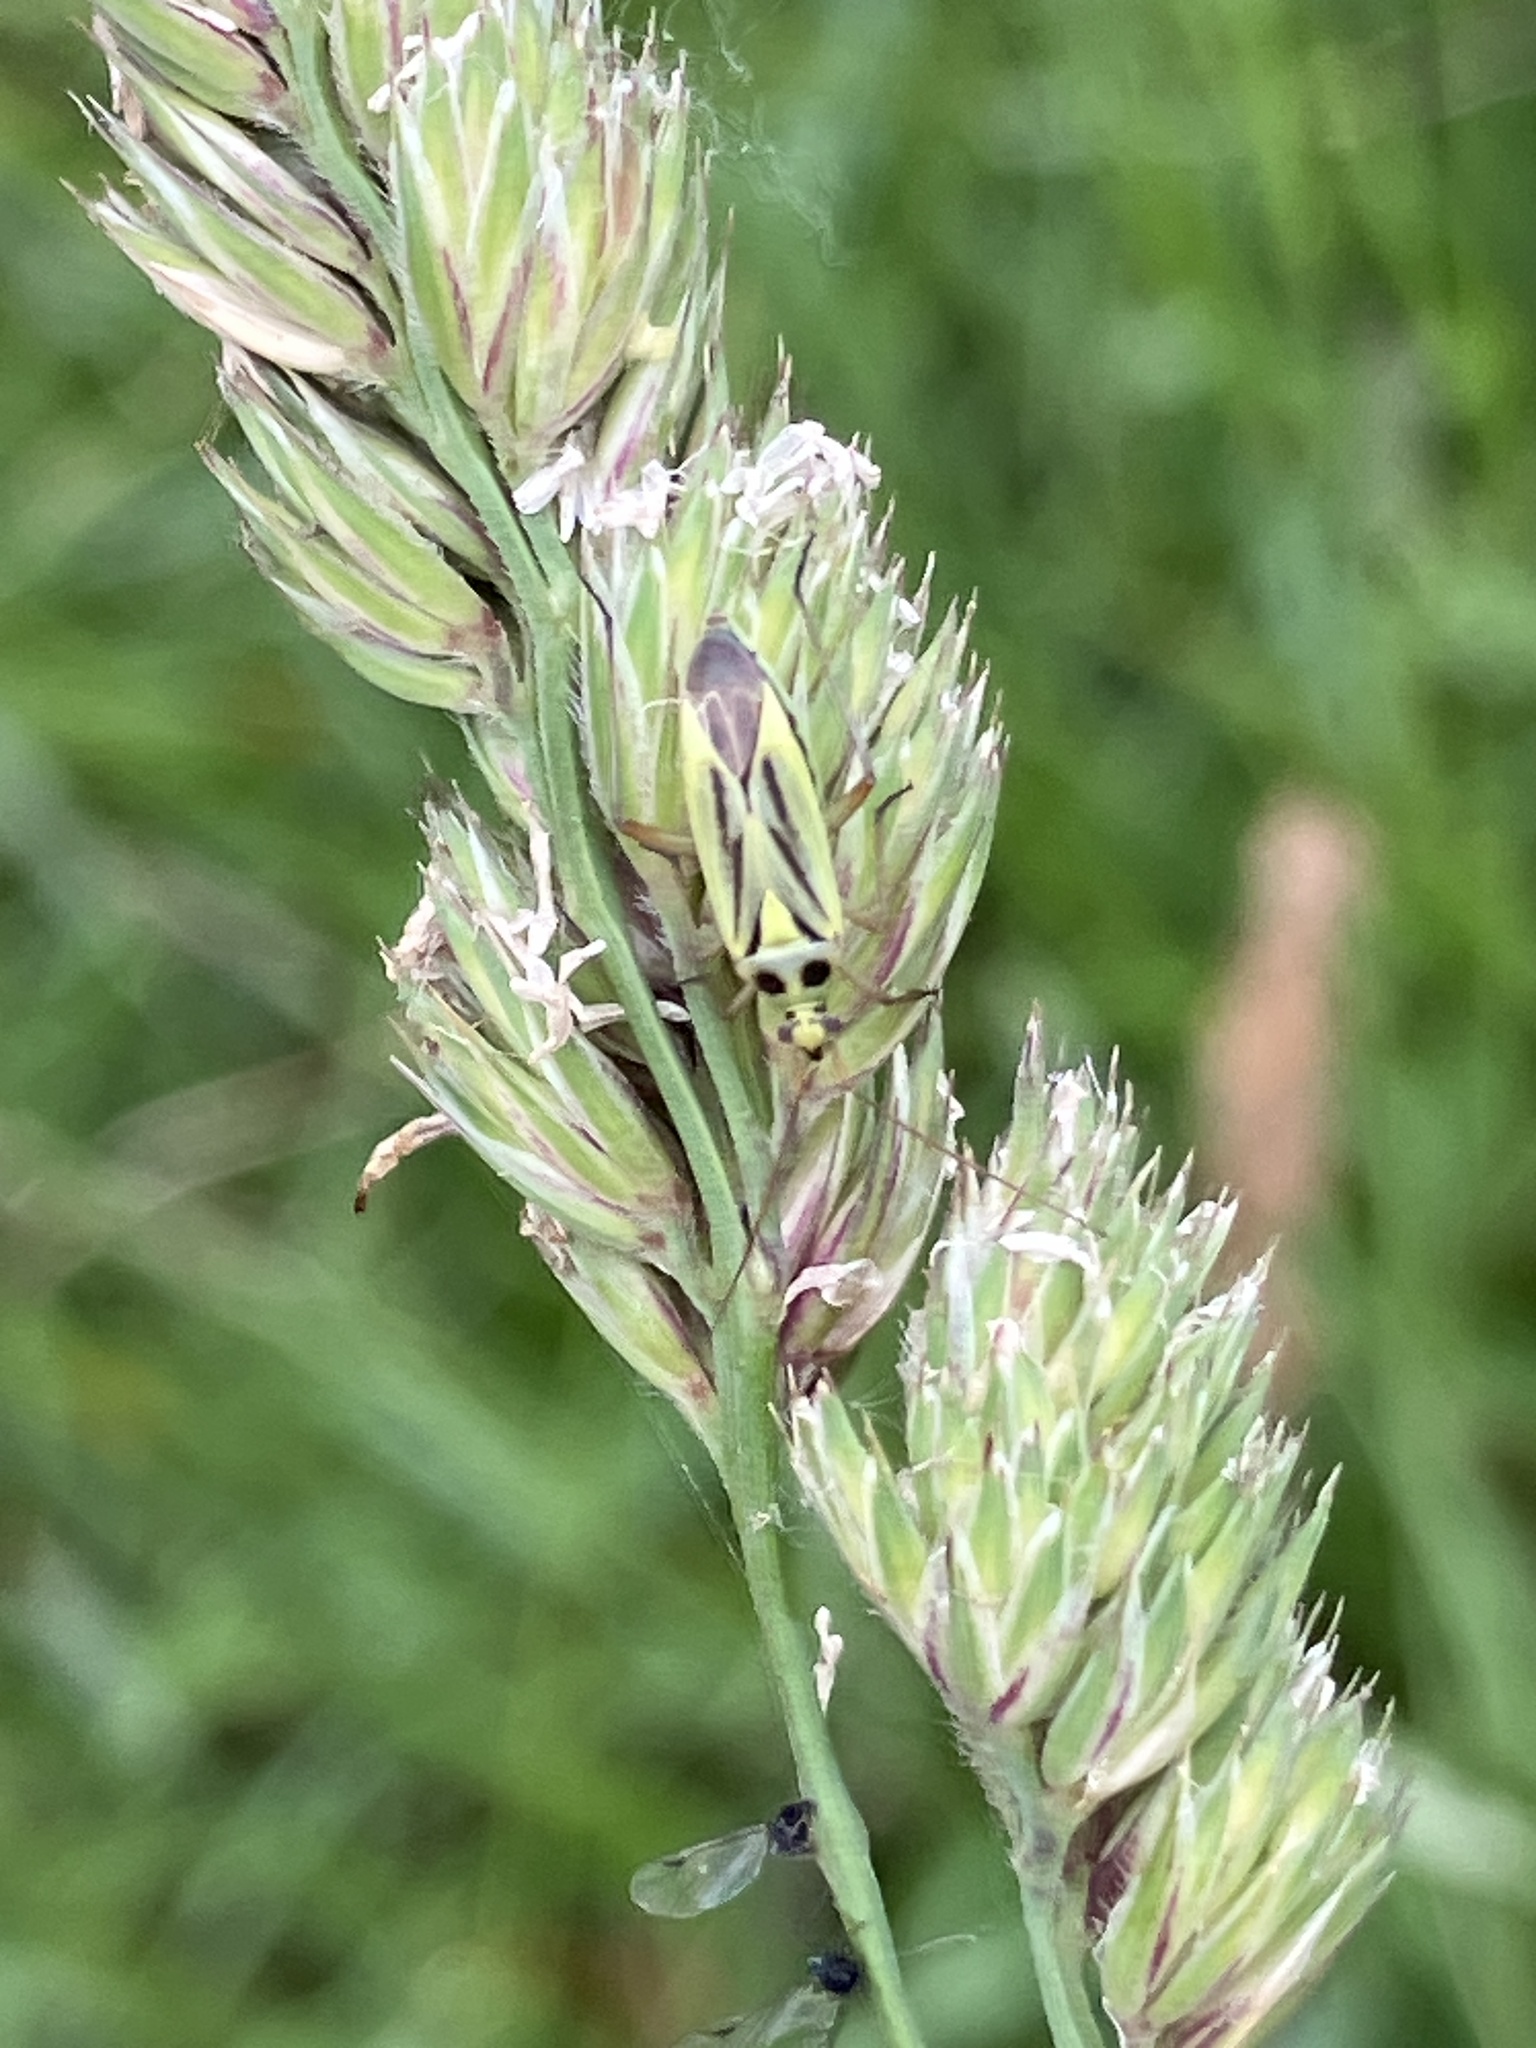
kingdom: Animalia
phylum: Arthropoda
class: Insecta
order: Hemiptera
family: Miridae
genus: Stenotus
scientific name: Stenotus binotatus
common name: Plant bug
